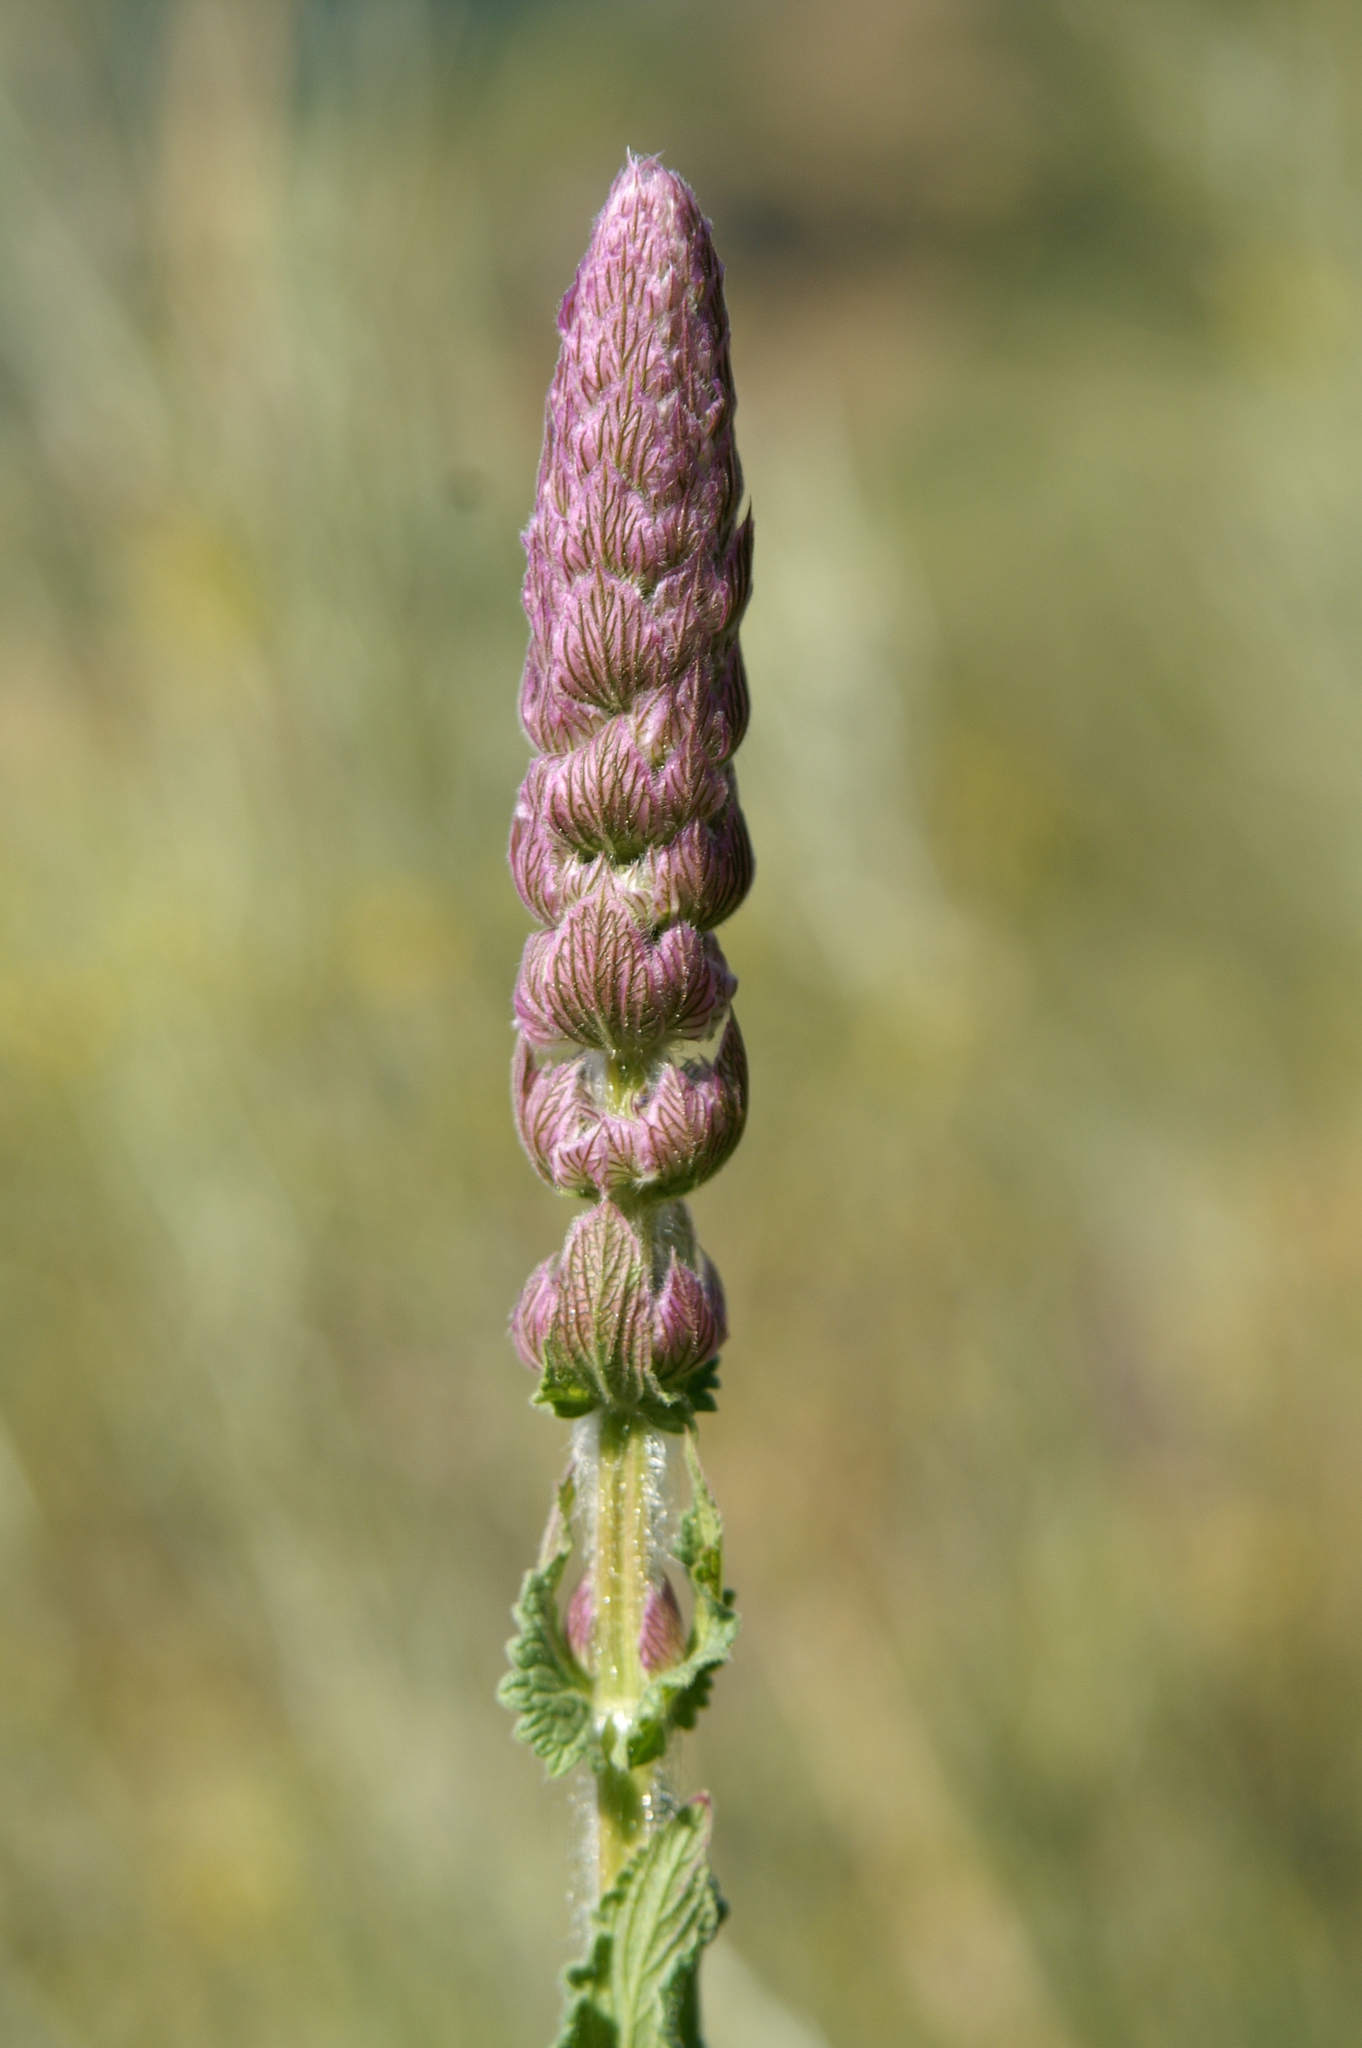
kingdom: Plantae
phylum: Tracheophyta
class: Magnoliopsida
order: Lamiales
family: Lamiaceae
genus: Nepeta
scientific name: Nepeta tuberosa
